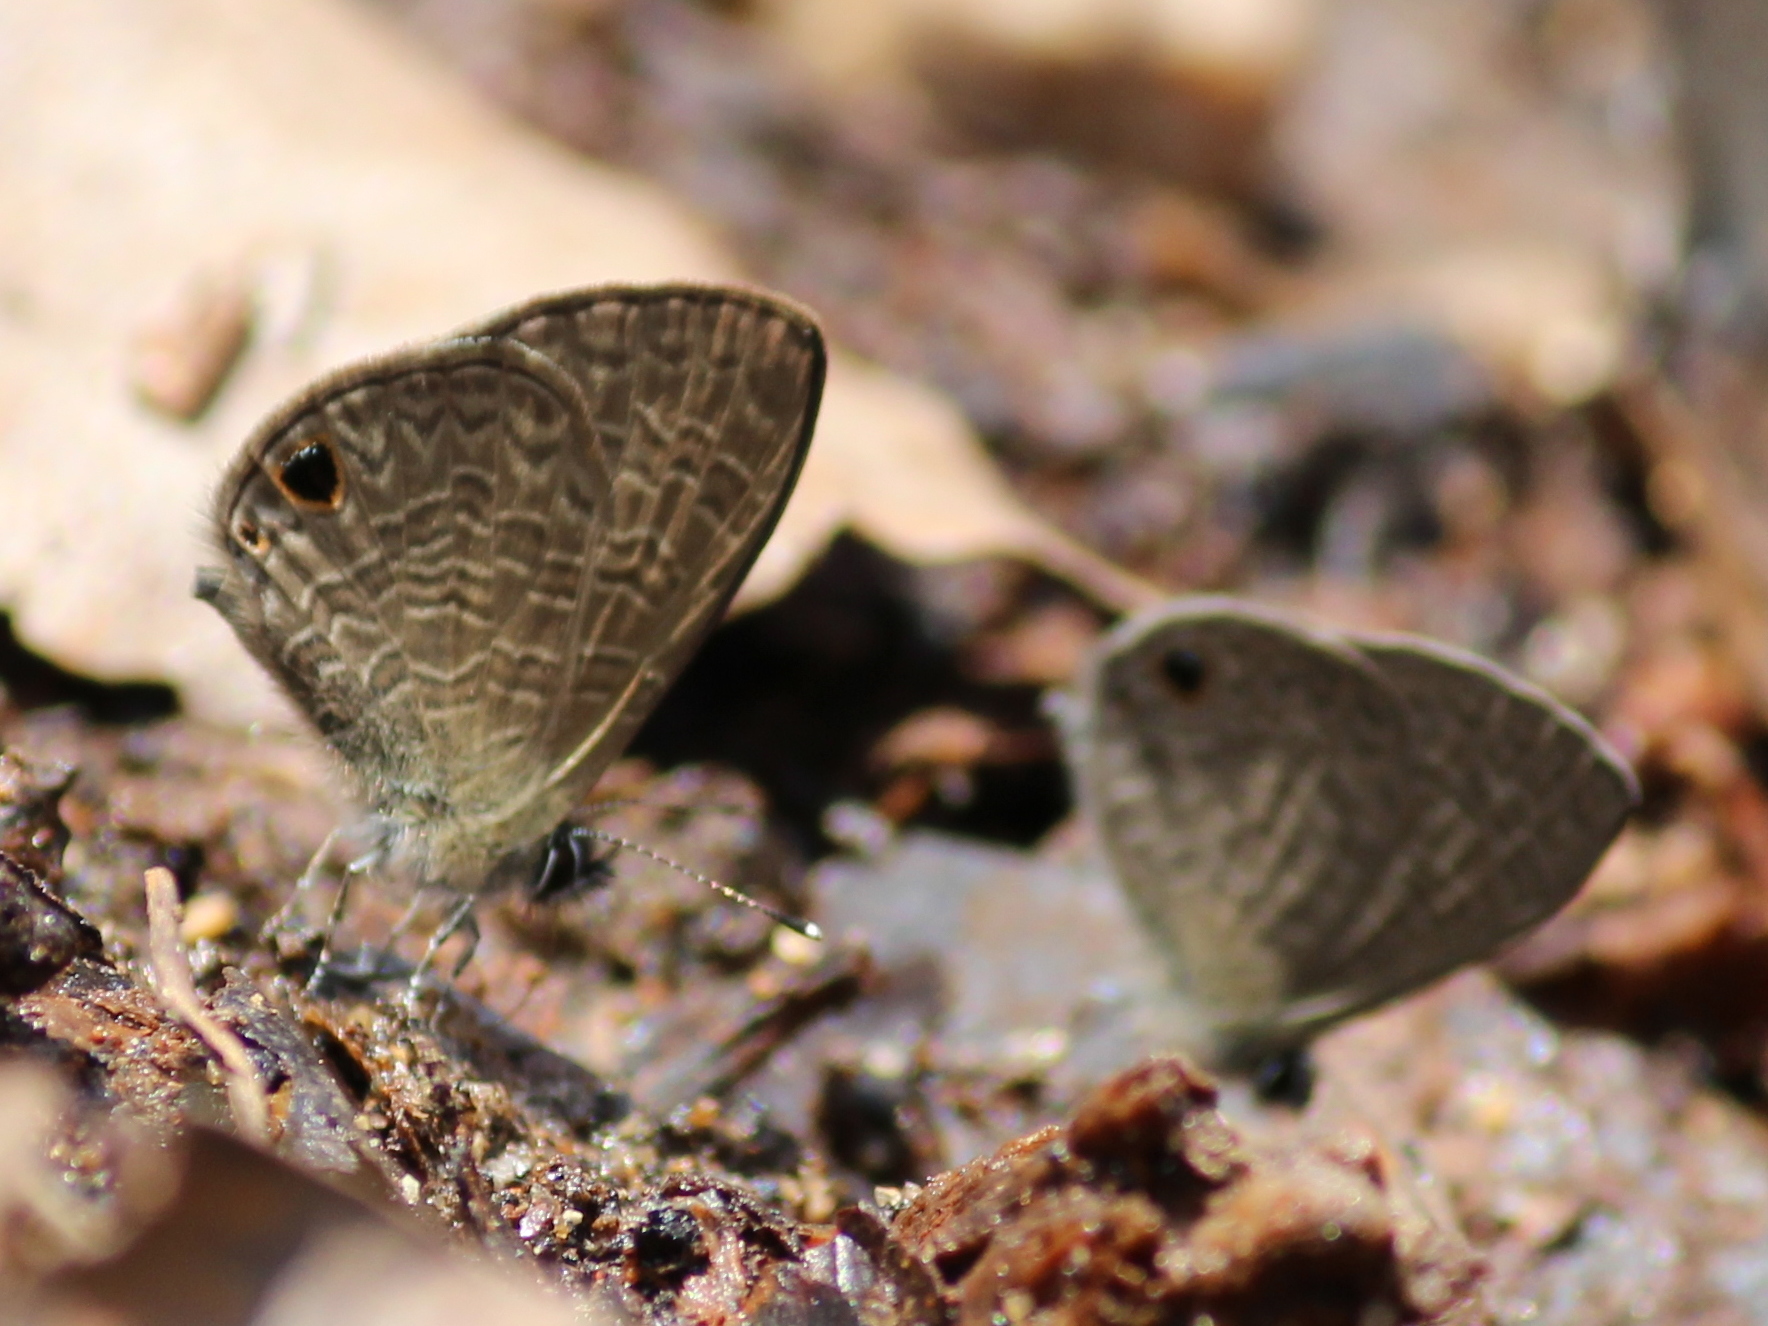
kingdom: Animalia
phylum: Arthropoda
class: Insecta
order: Lepidoptera
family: Lycaenidae
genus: Prosotas
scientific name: Prosotas dubiosa
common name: Tailless lineblue
